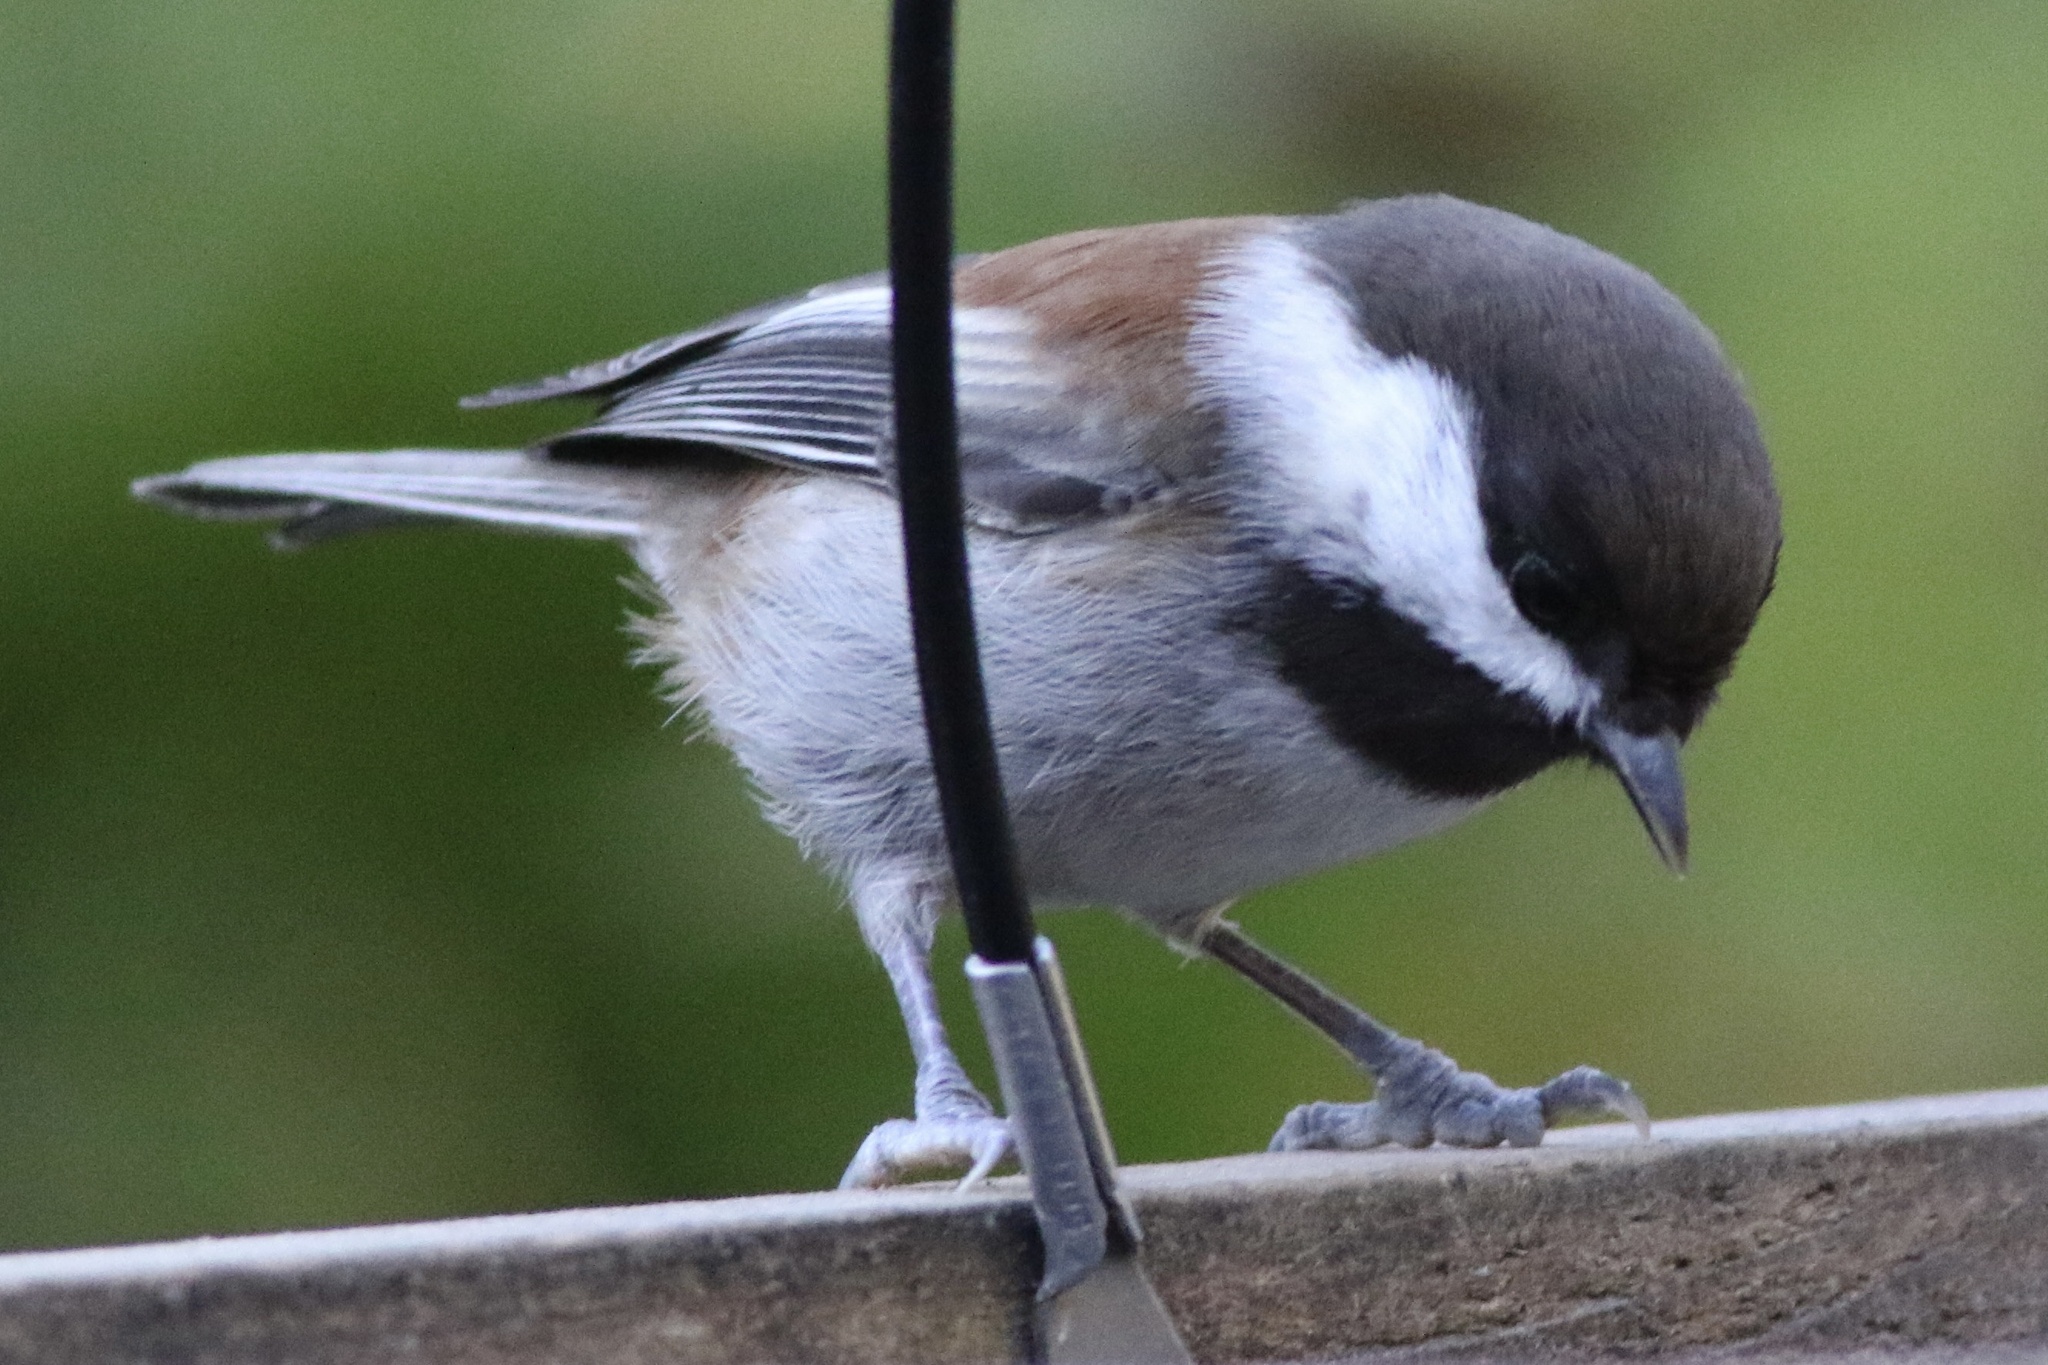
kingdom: Animalia
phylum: Chordata
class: Aves
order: Passeriformes
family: Paridae
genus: Poecile
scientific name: Poecile rufescens
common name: Chestnut-backed chickadee
